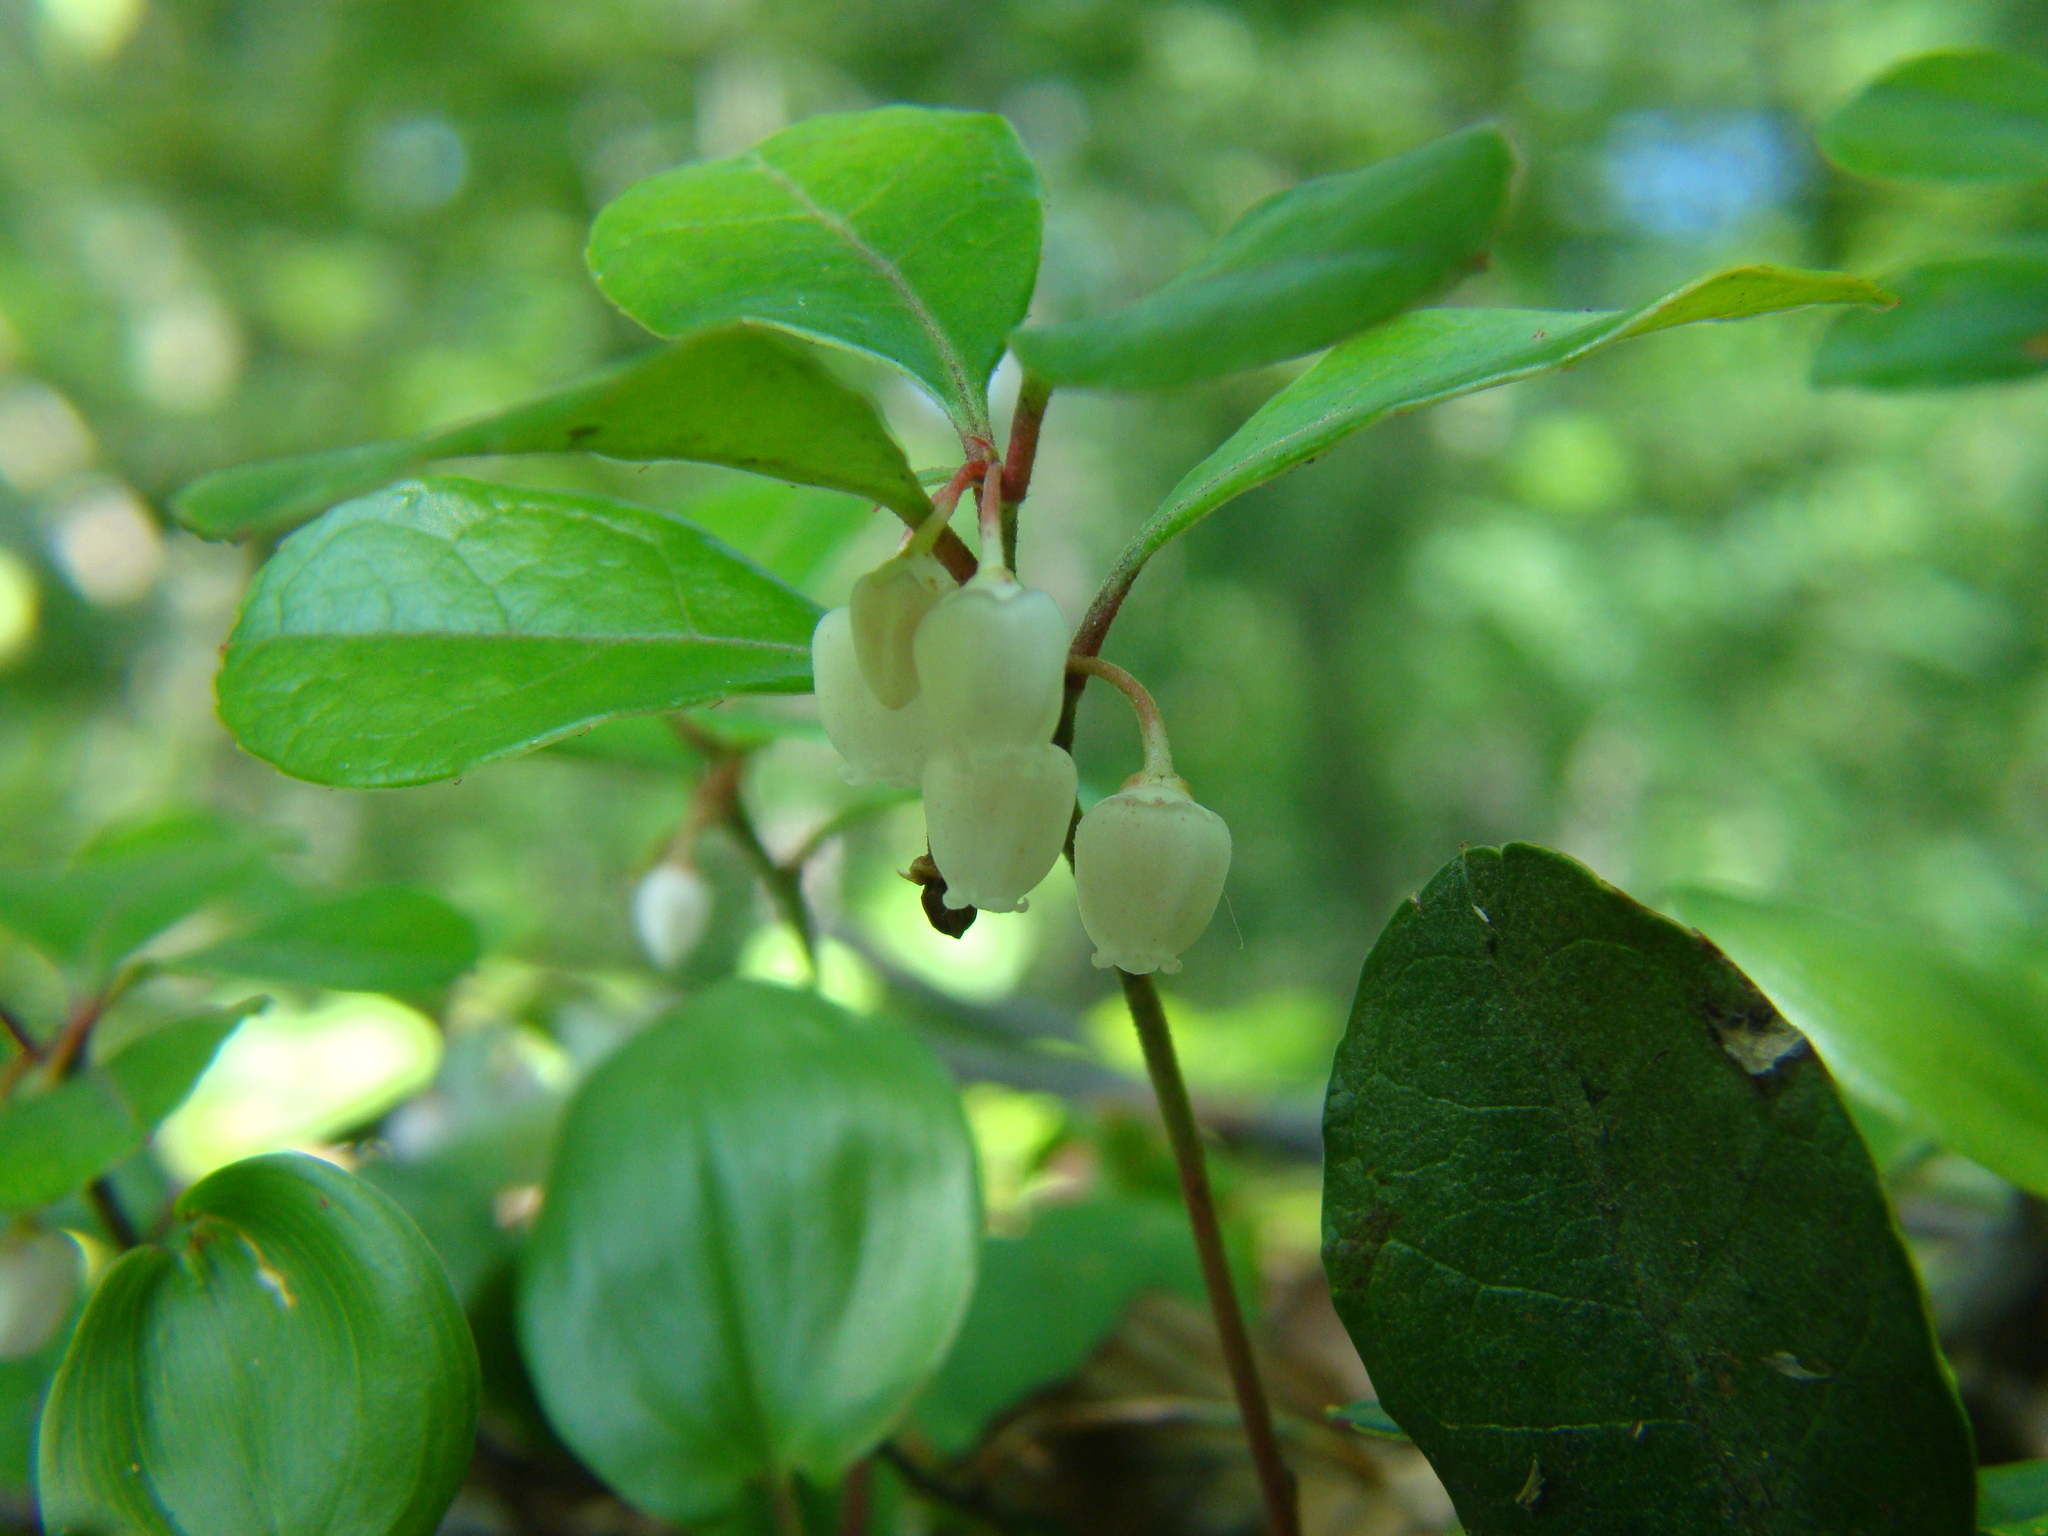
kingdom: Plantae
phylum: Tracheophyta
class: Magnoliopsida
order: Ericales
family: Ericaceae
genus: Gaultheria
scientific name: Gaultheria procumbens
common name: Checkerberry
